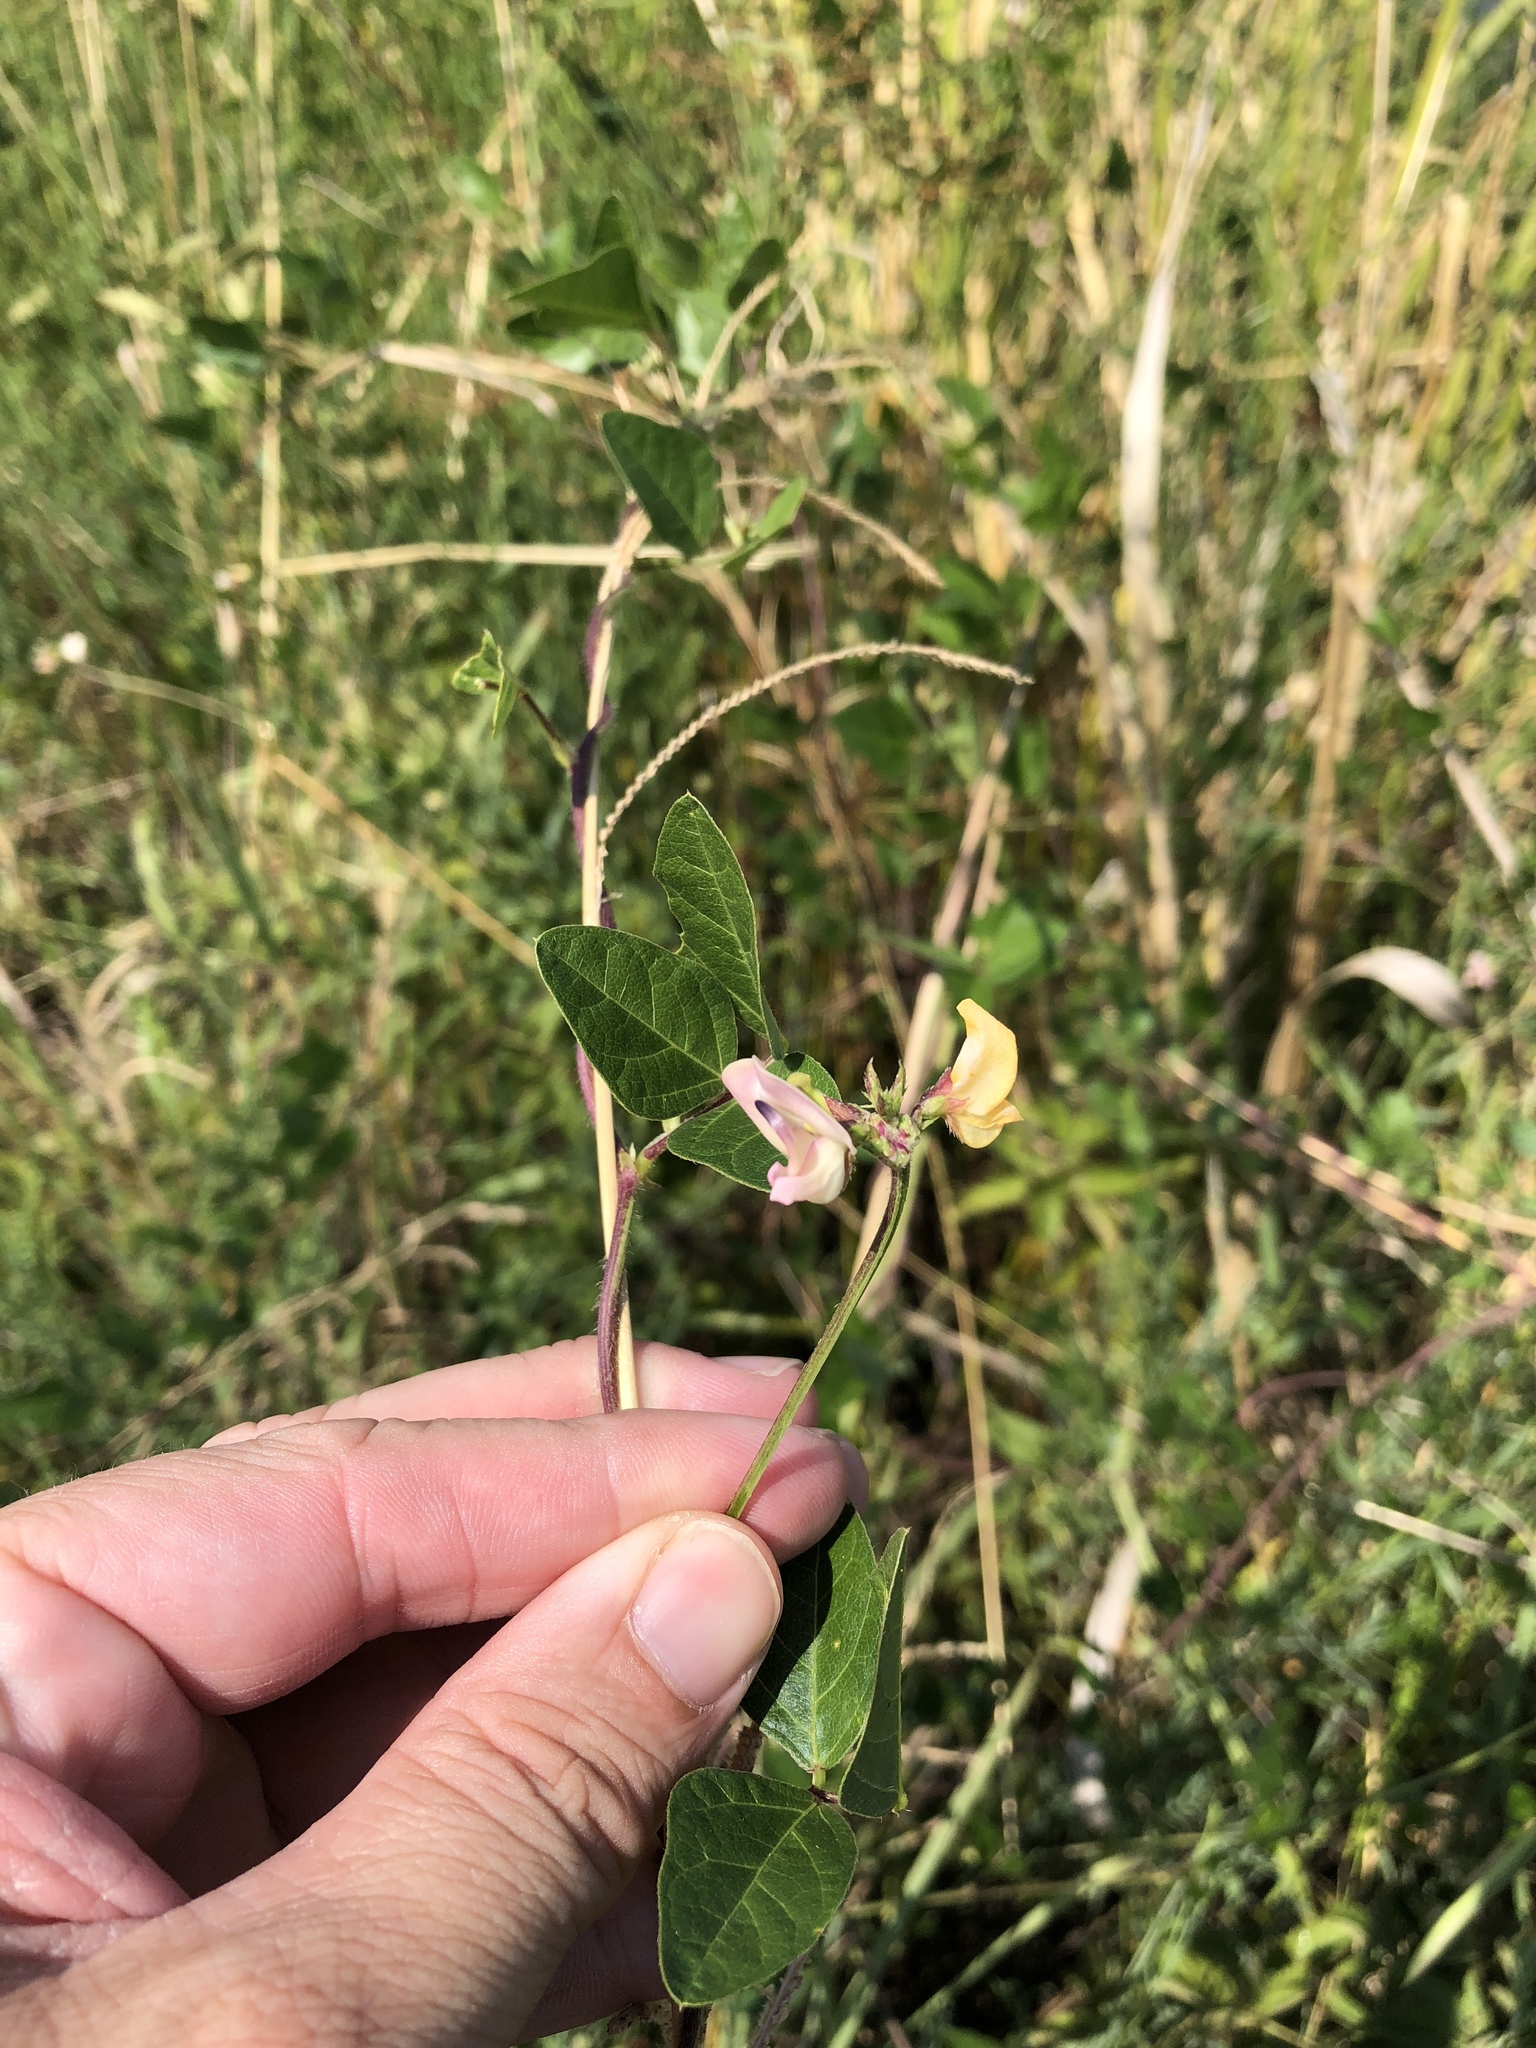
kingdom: Plantae
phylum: Tracheophyta
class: Magnoliopsida
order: Fabales
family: Fabaceae
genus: Strophostyles
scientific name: Strophostyles helvola
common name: Trailing wild bean
